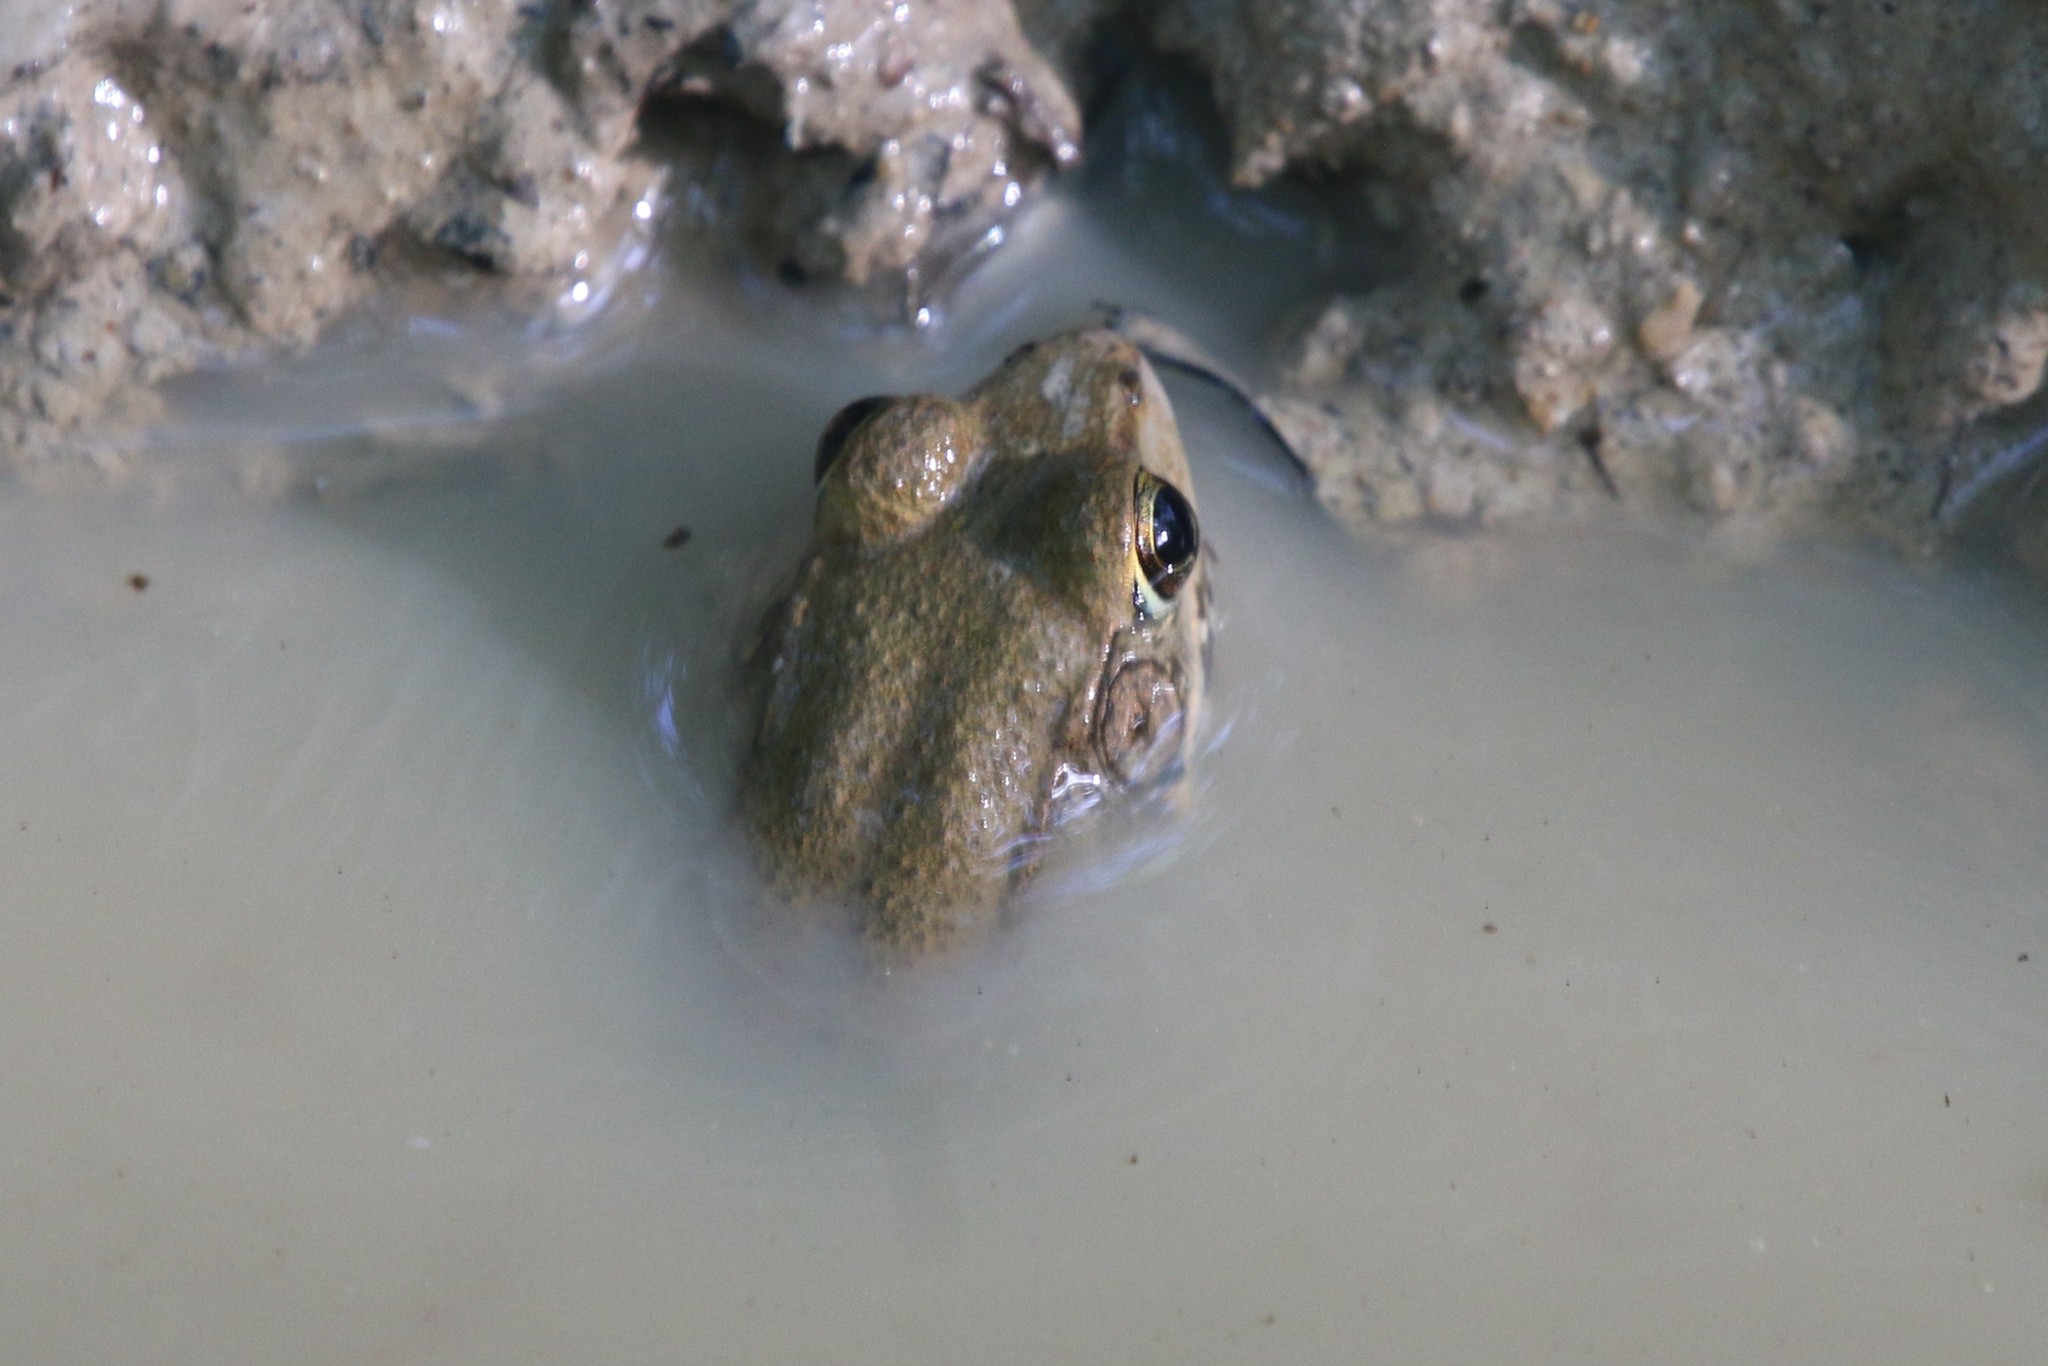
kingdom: Animalia
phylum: Chordata
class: Amphibia
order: Anura
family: Ranidae
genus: Lithobates
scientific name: Lithobates clamitans
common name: Green frog
